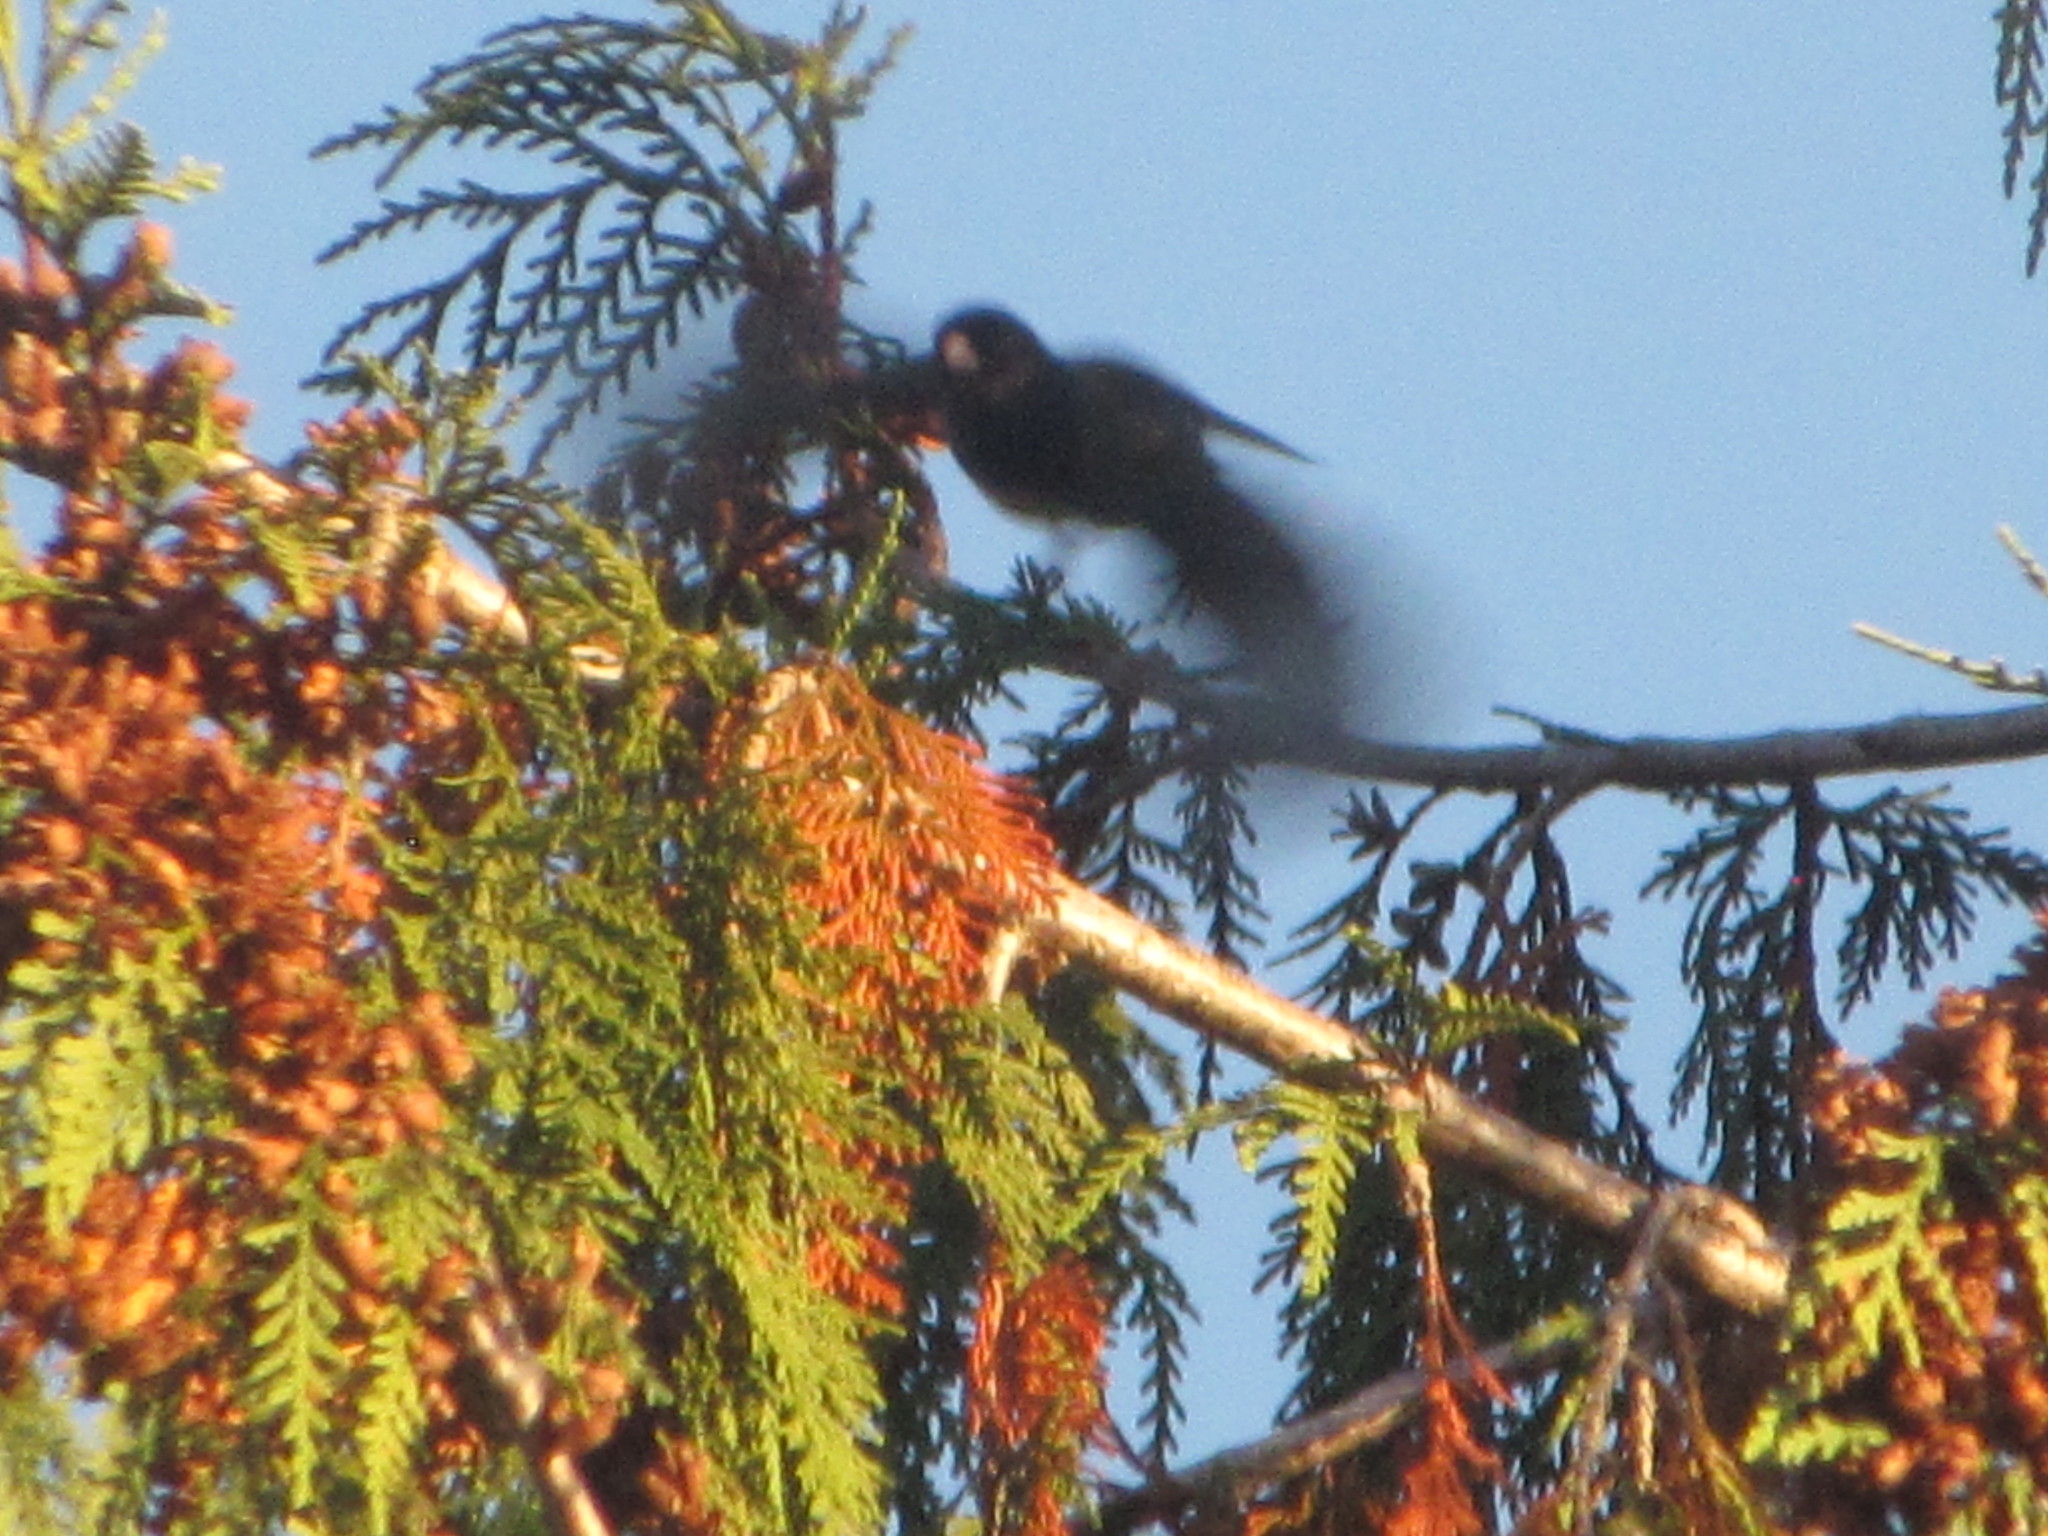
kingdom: Animalia
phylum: Chordata
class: Aves
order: Passeriformes
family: Passerellidae
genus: Junco
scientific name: Junco hyemalis
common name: Dark-eyed junco
